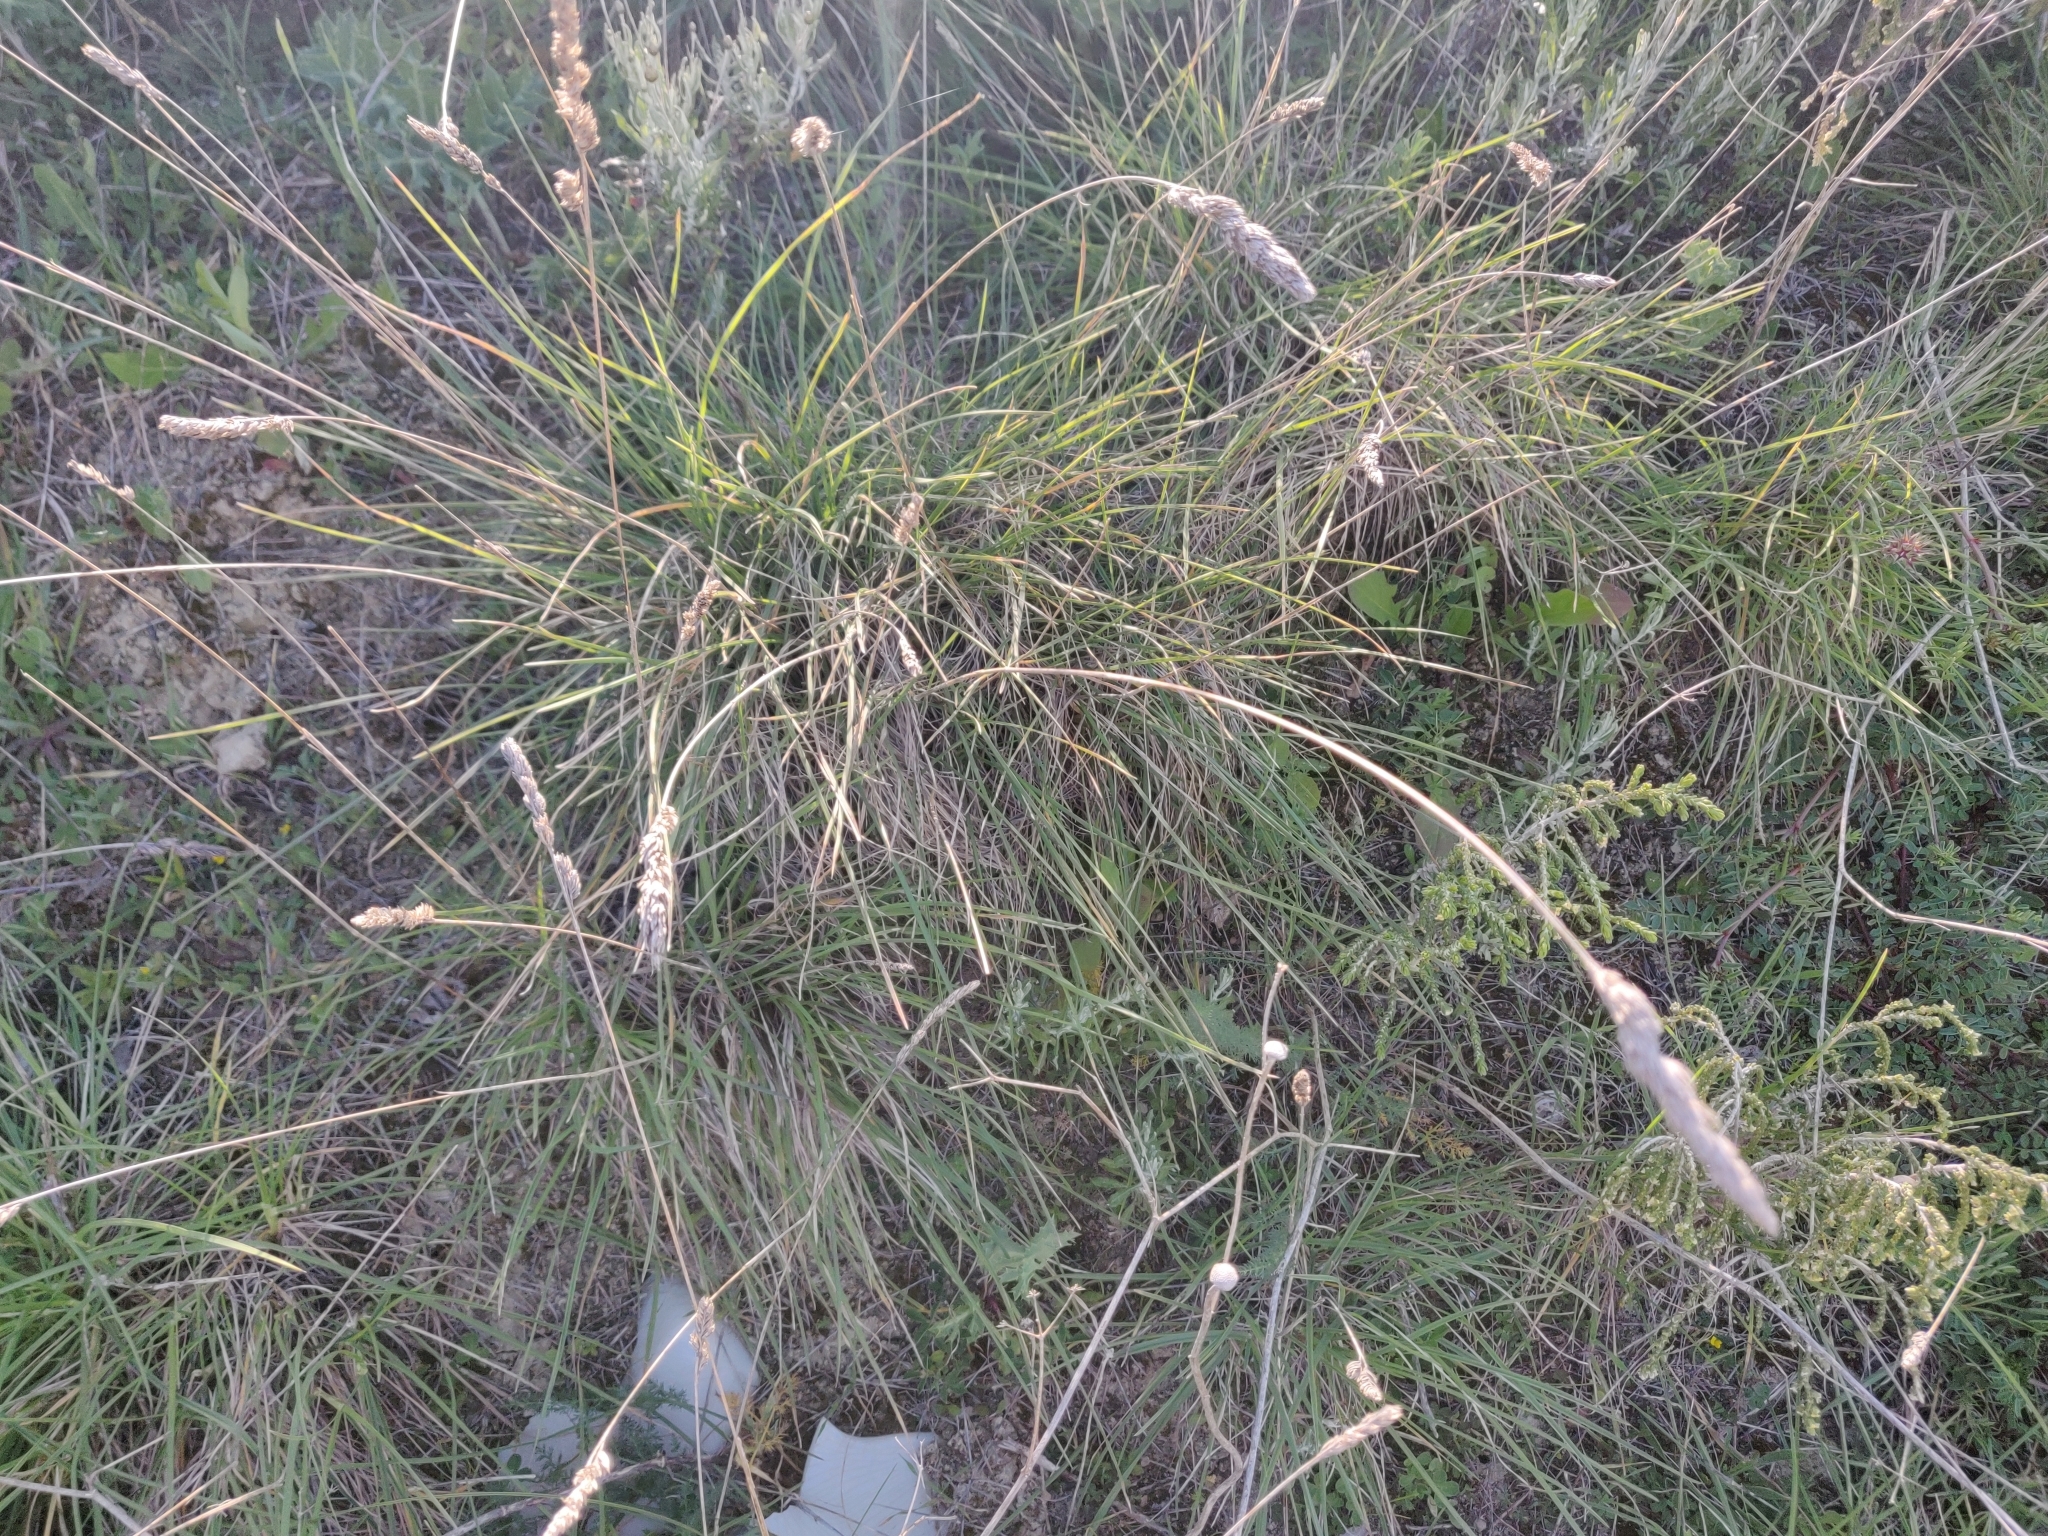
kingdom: Plantae
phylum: Tracheophyta
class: Liliopsida
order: Poales
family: Poaceae
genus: Dactylis
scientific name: Dactylis glomerata
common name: Orchardgrass
